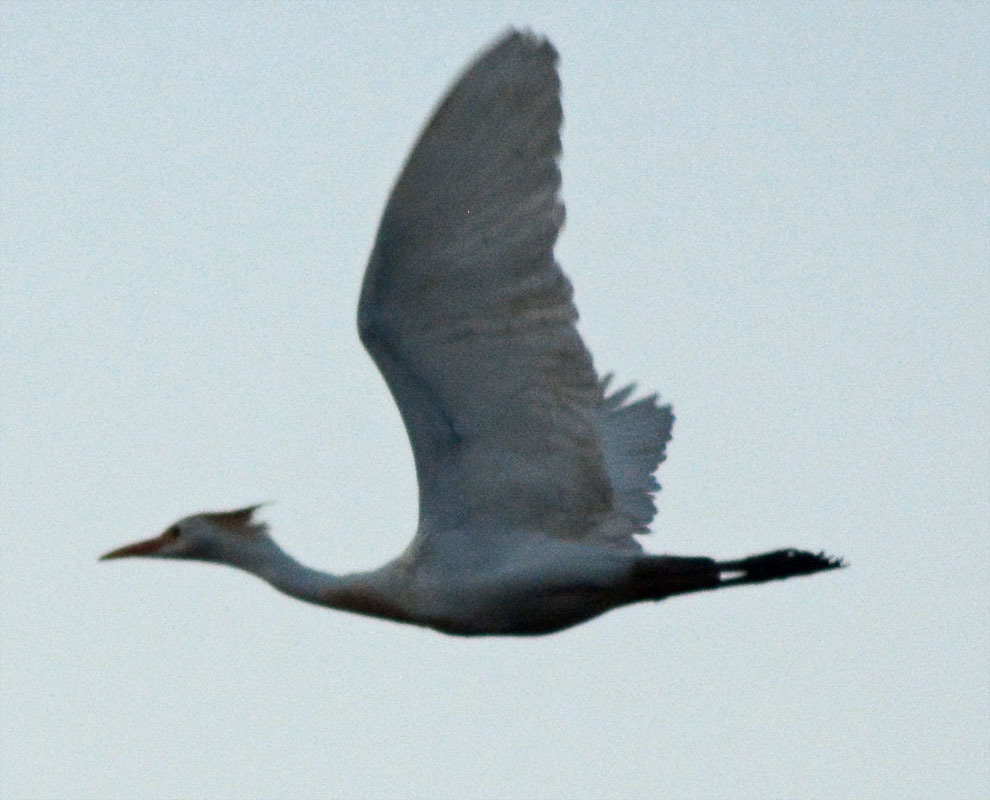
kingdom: Animalia
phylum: Chordata
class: Aves
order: Pelecaniformes
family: Ardeidae
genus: Bubulcus
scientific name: Bubulcus ibis
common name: Cattle egret
